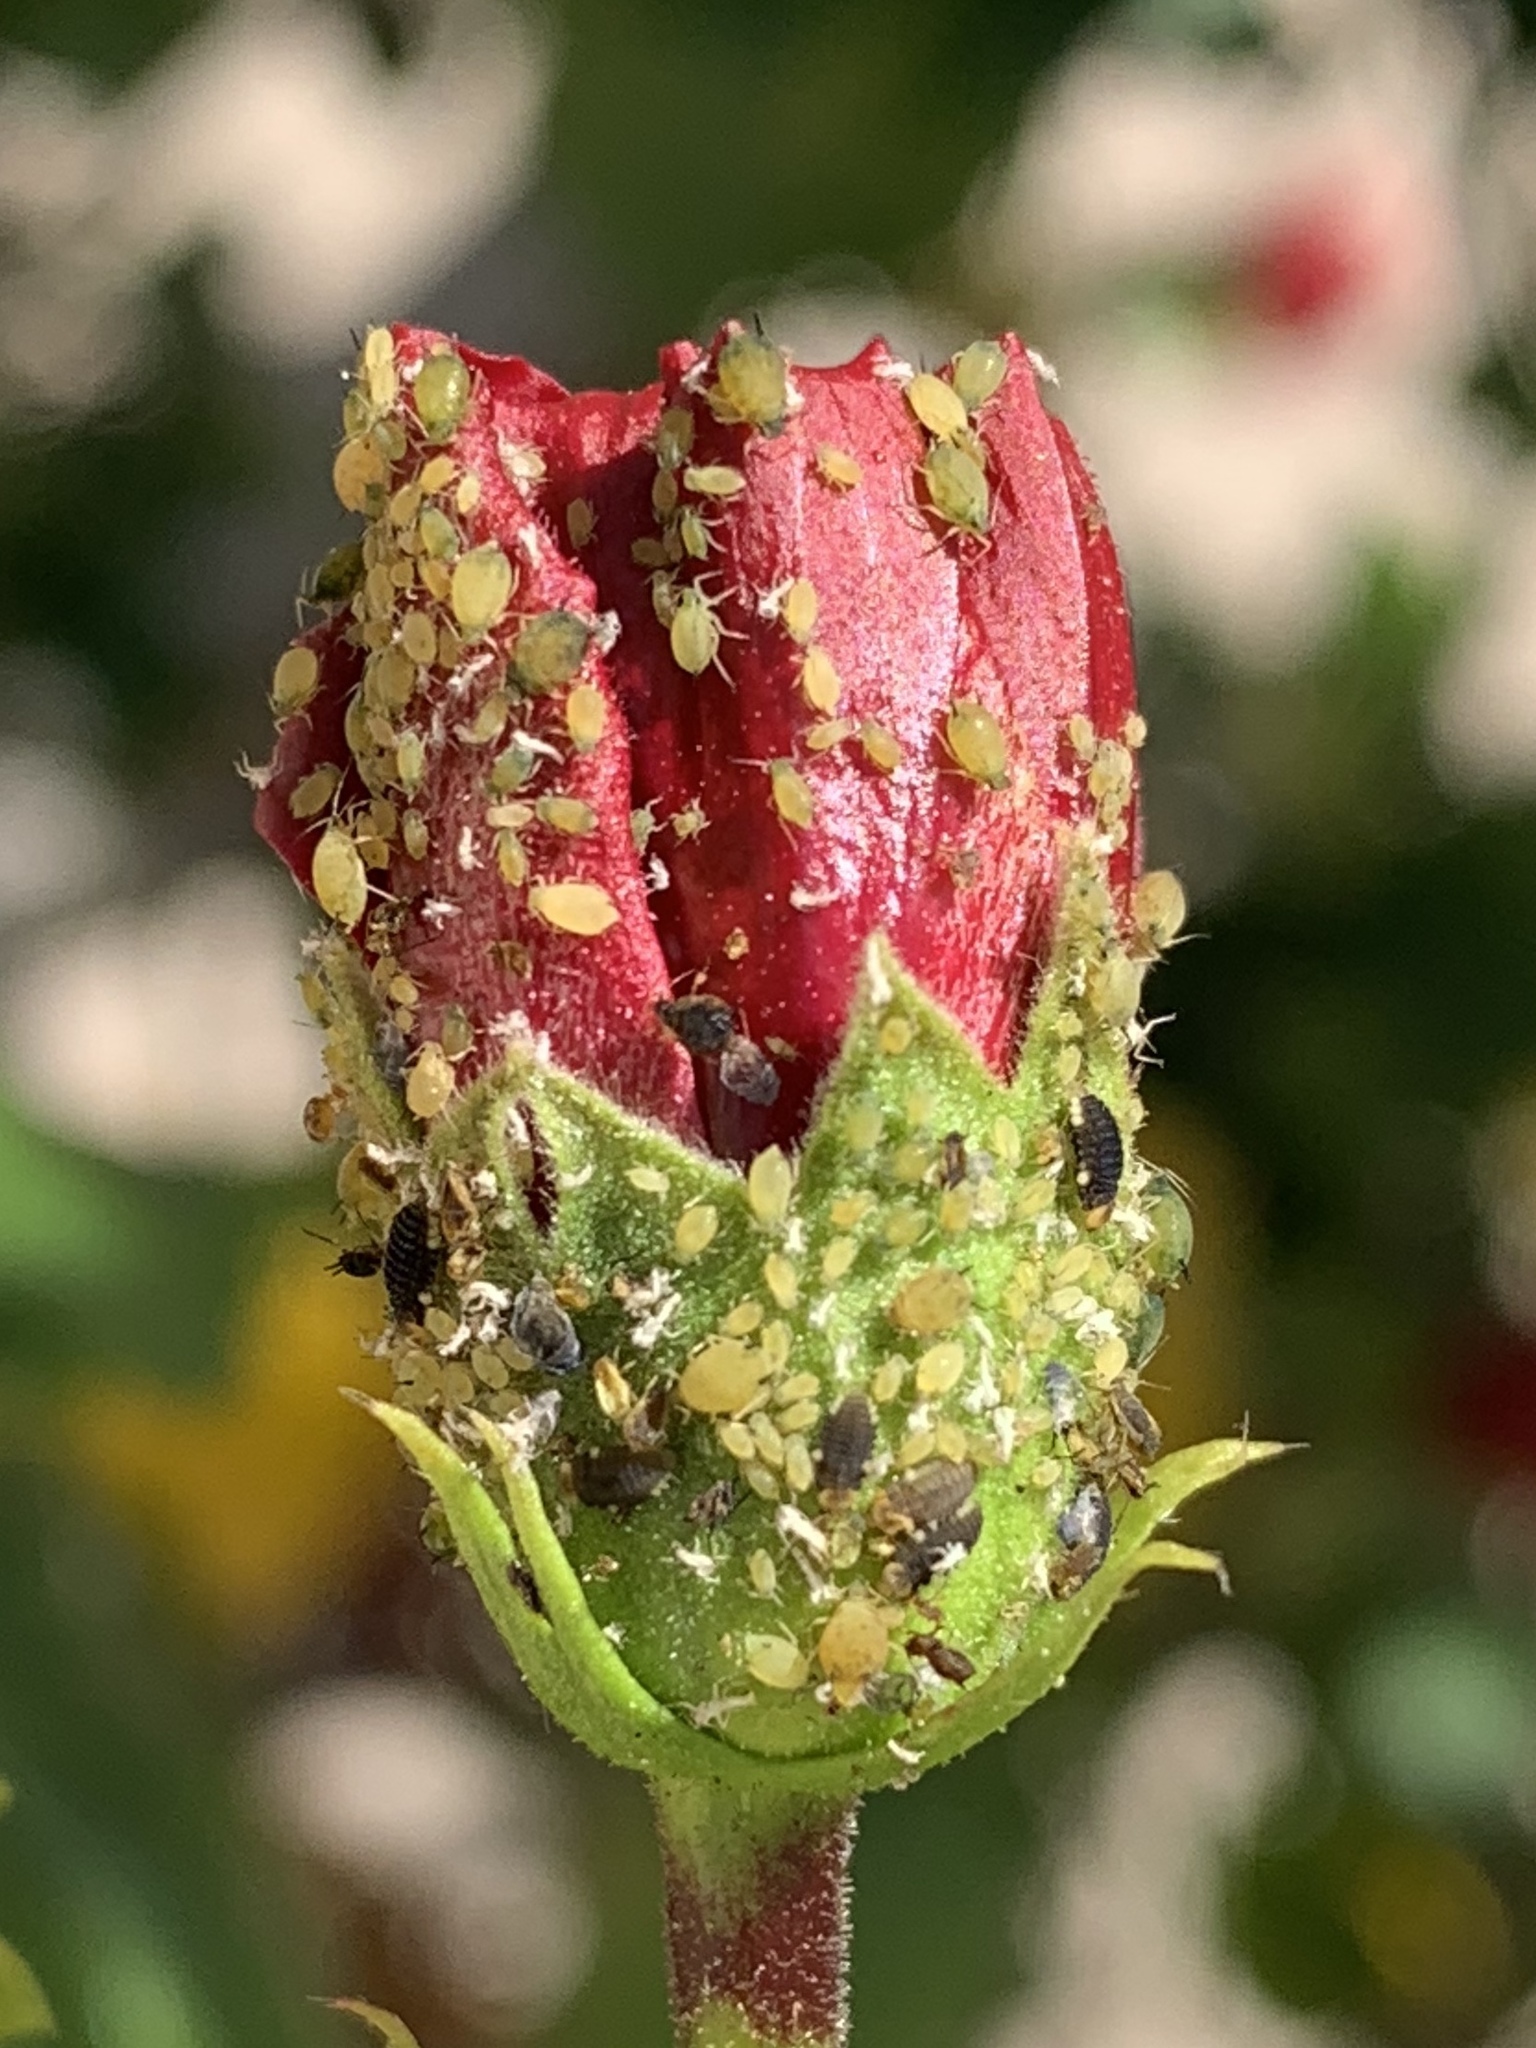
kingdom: Animalia
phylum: Arthropoda
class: Insecta
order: Hemiptera
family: Aphididae
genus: Aphis
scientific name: Aphis gossypii
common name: Melon aphid
